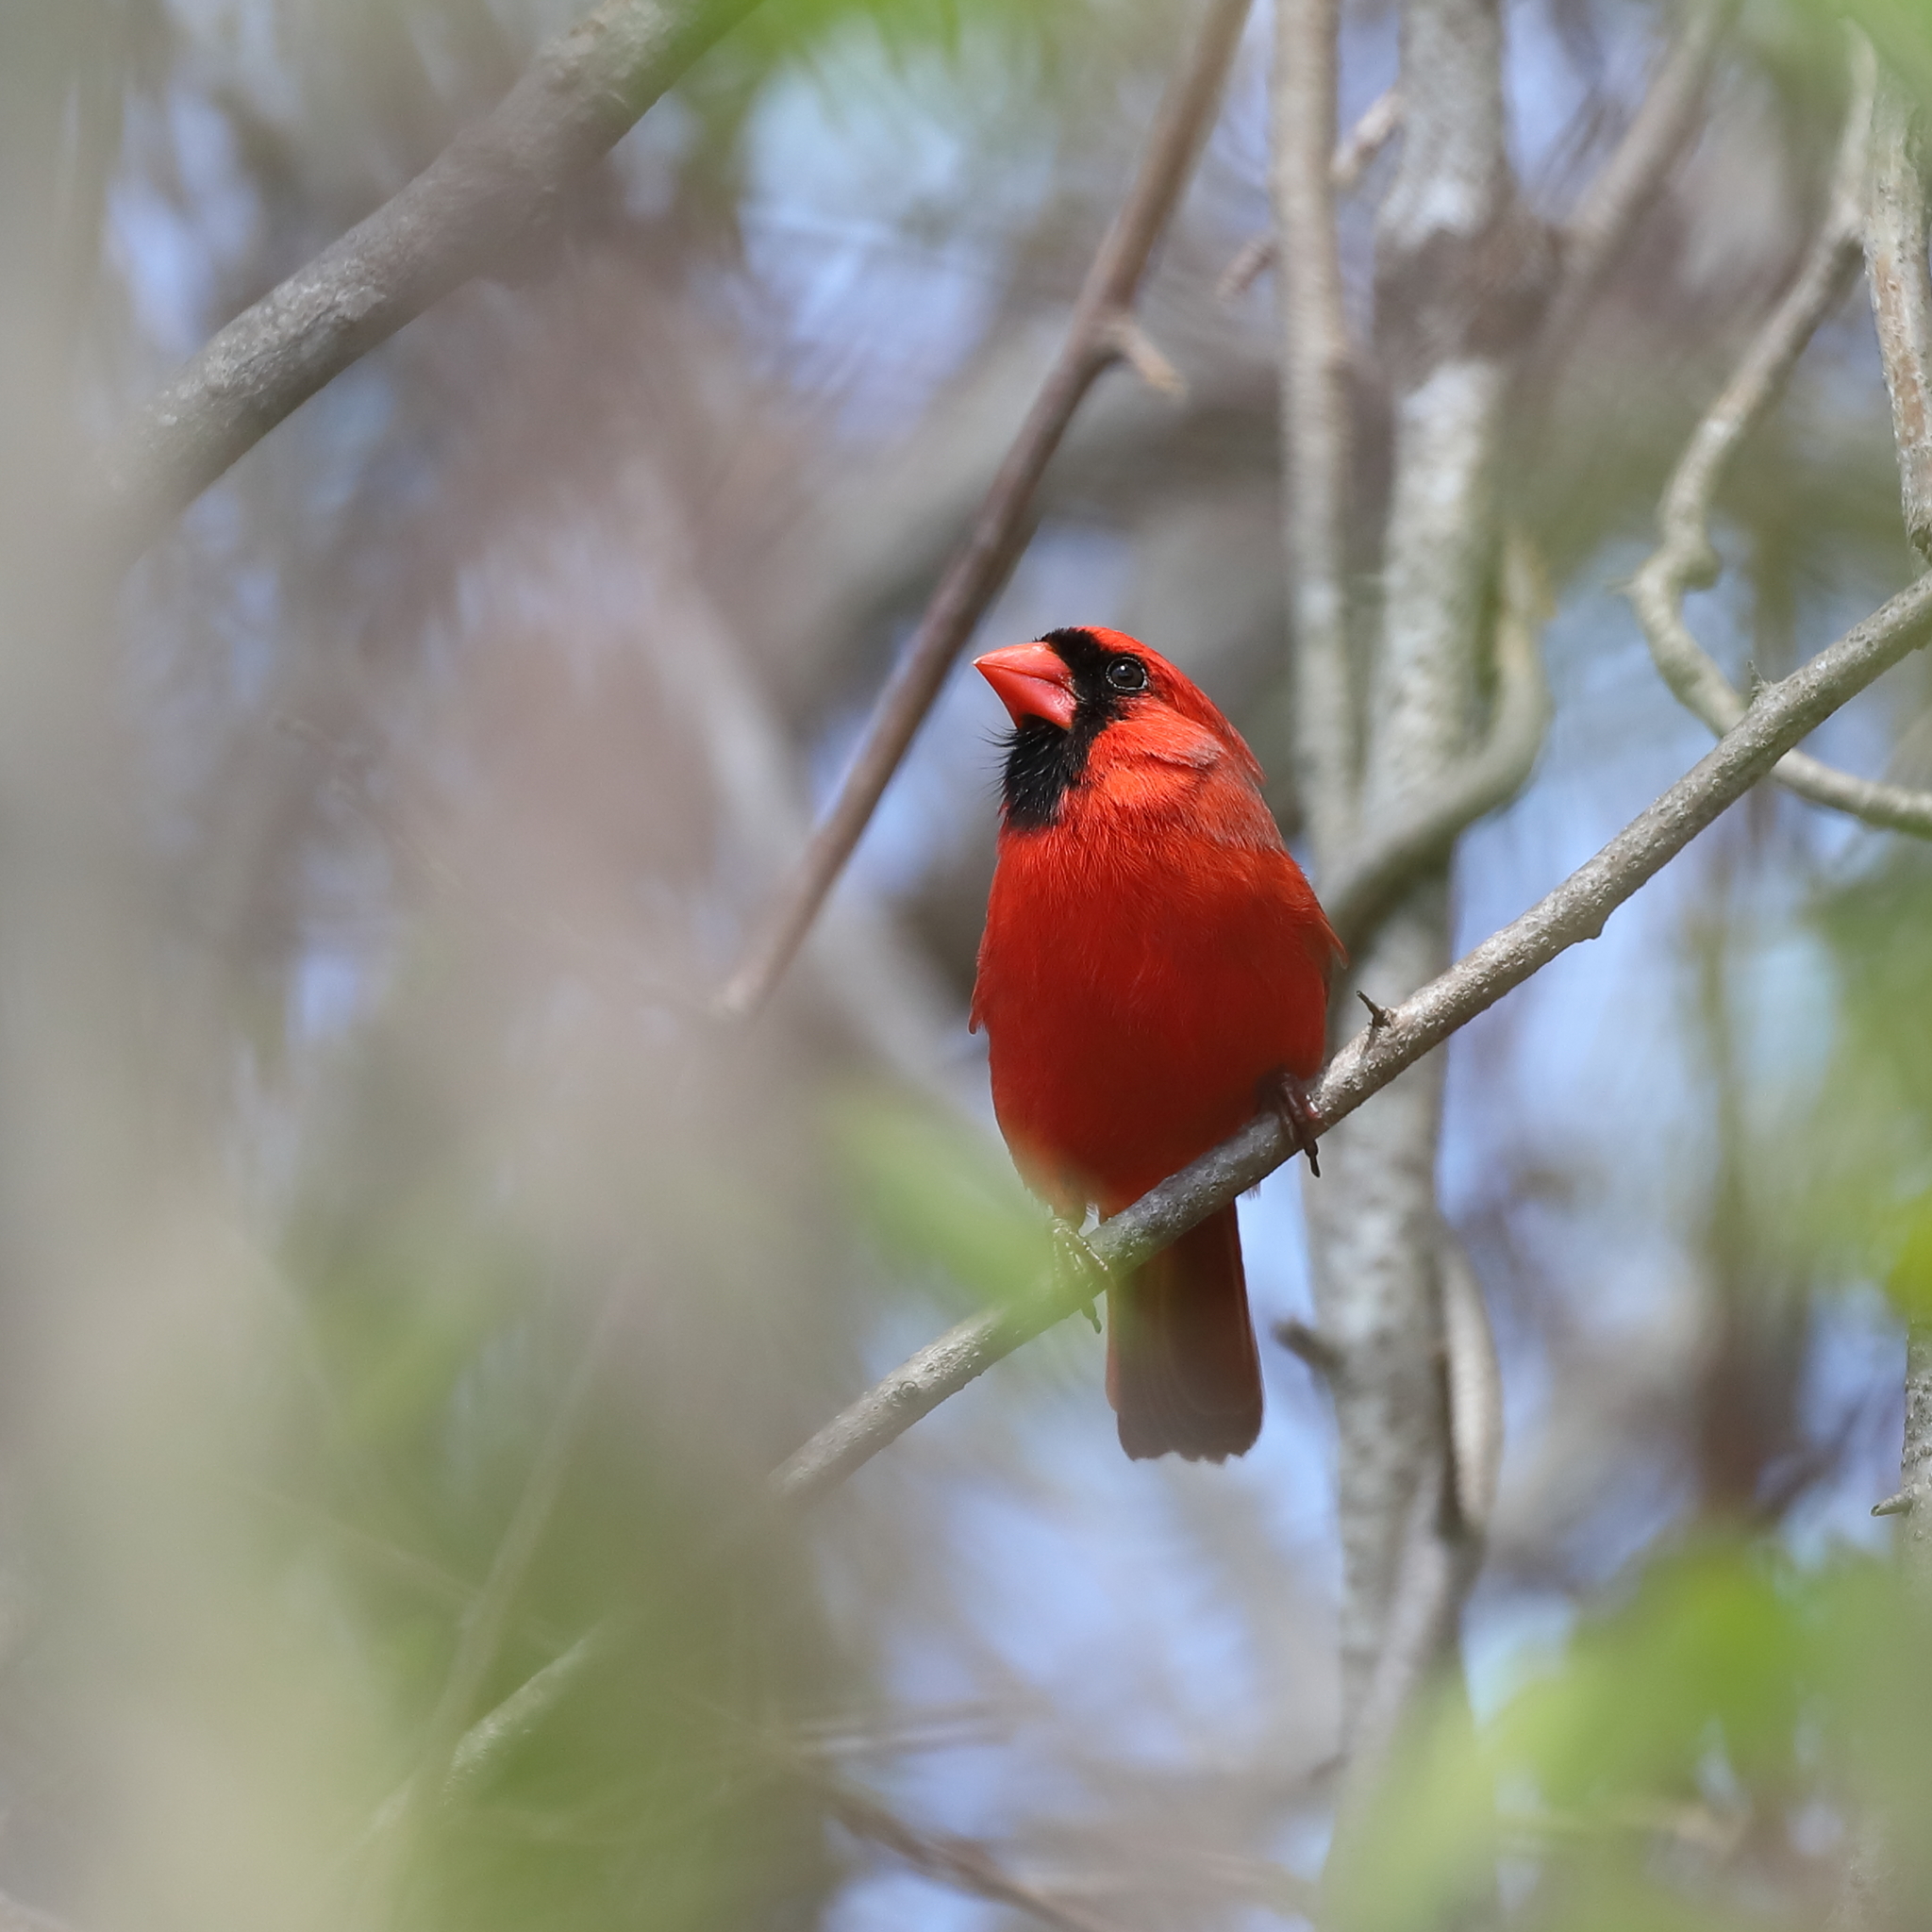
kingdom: Animalia
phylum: Chordata
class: Aves
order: Passeriformes
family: Cardinalidae
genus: Cardinalis
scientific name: Cardinalis cardinalis
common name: Northern cardinal
